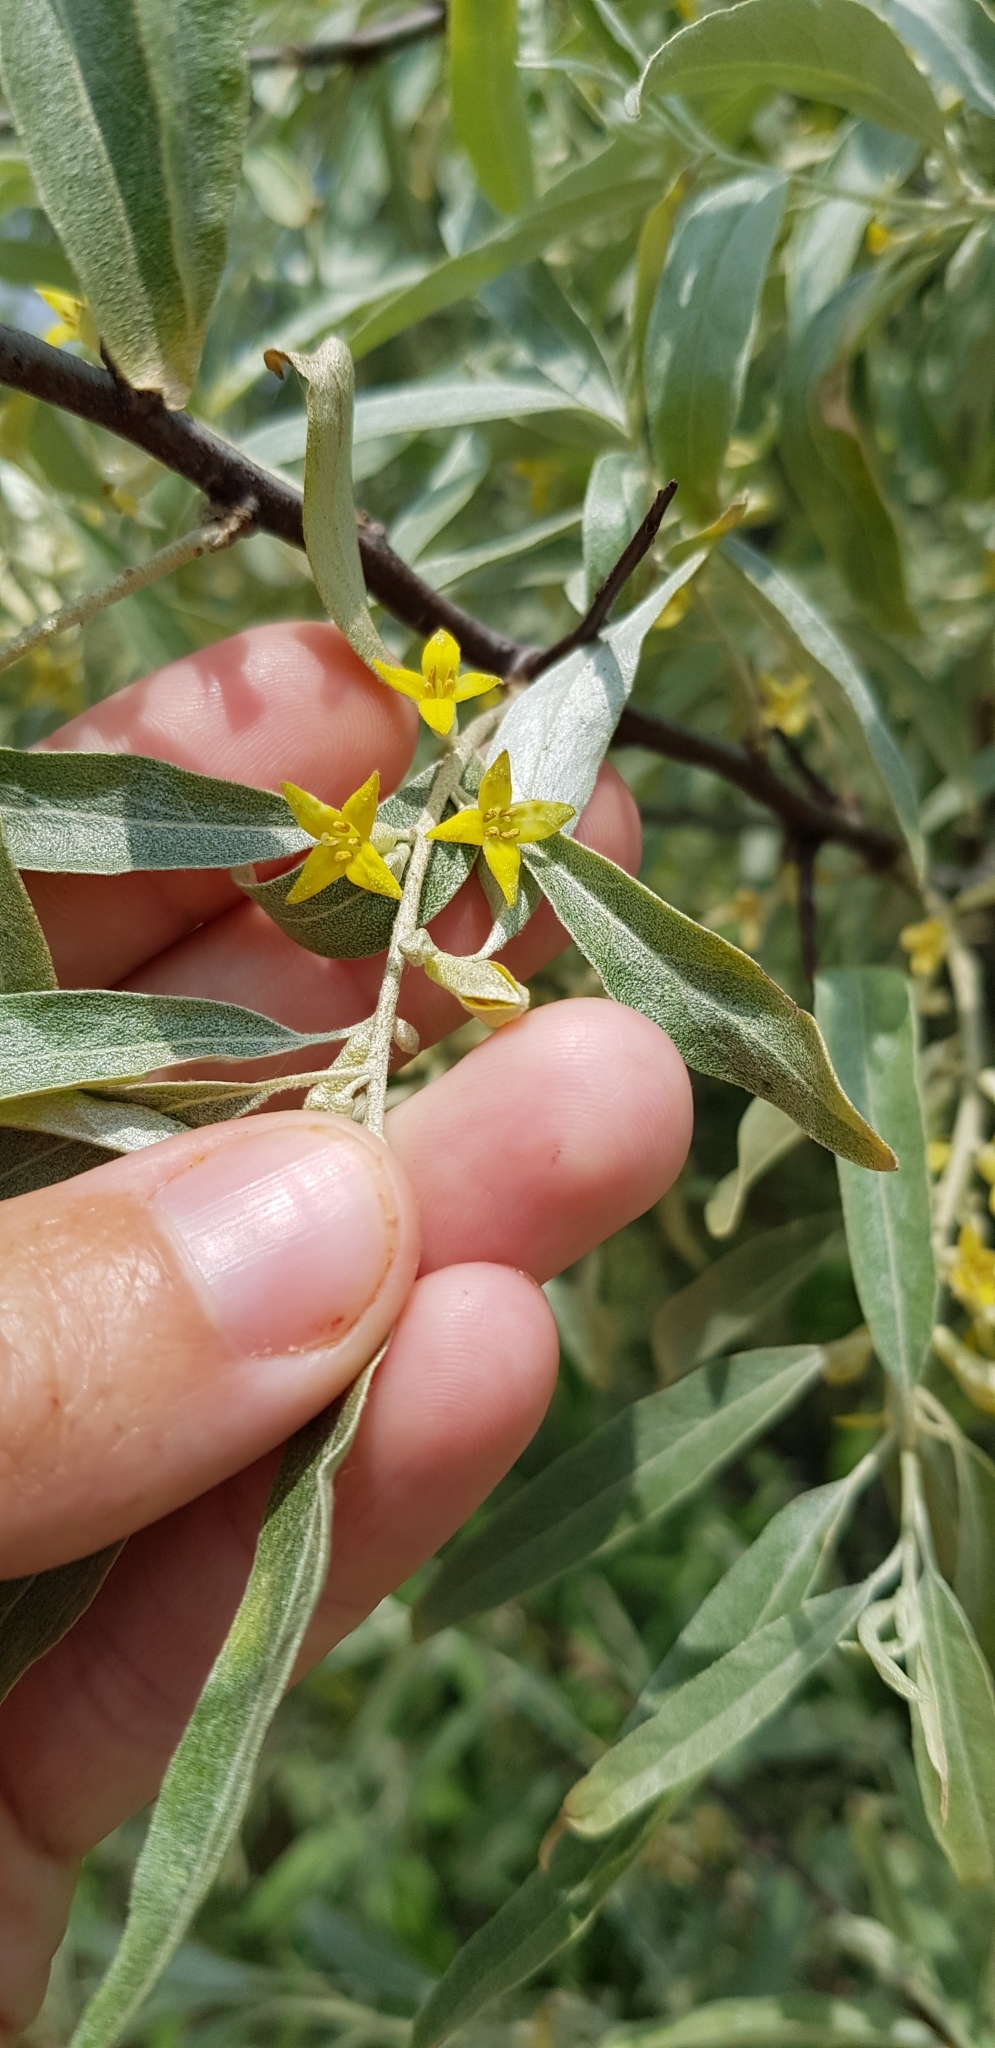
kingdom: Plantae
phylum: Tracheophyta
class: Magnoliopsida
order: Rosales
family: Elaeagnaceae
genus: Elaeagnus
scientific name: Elaeagnus angustifolia
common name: Russian olive
